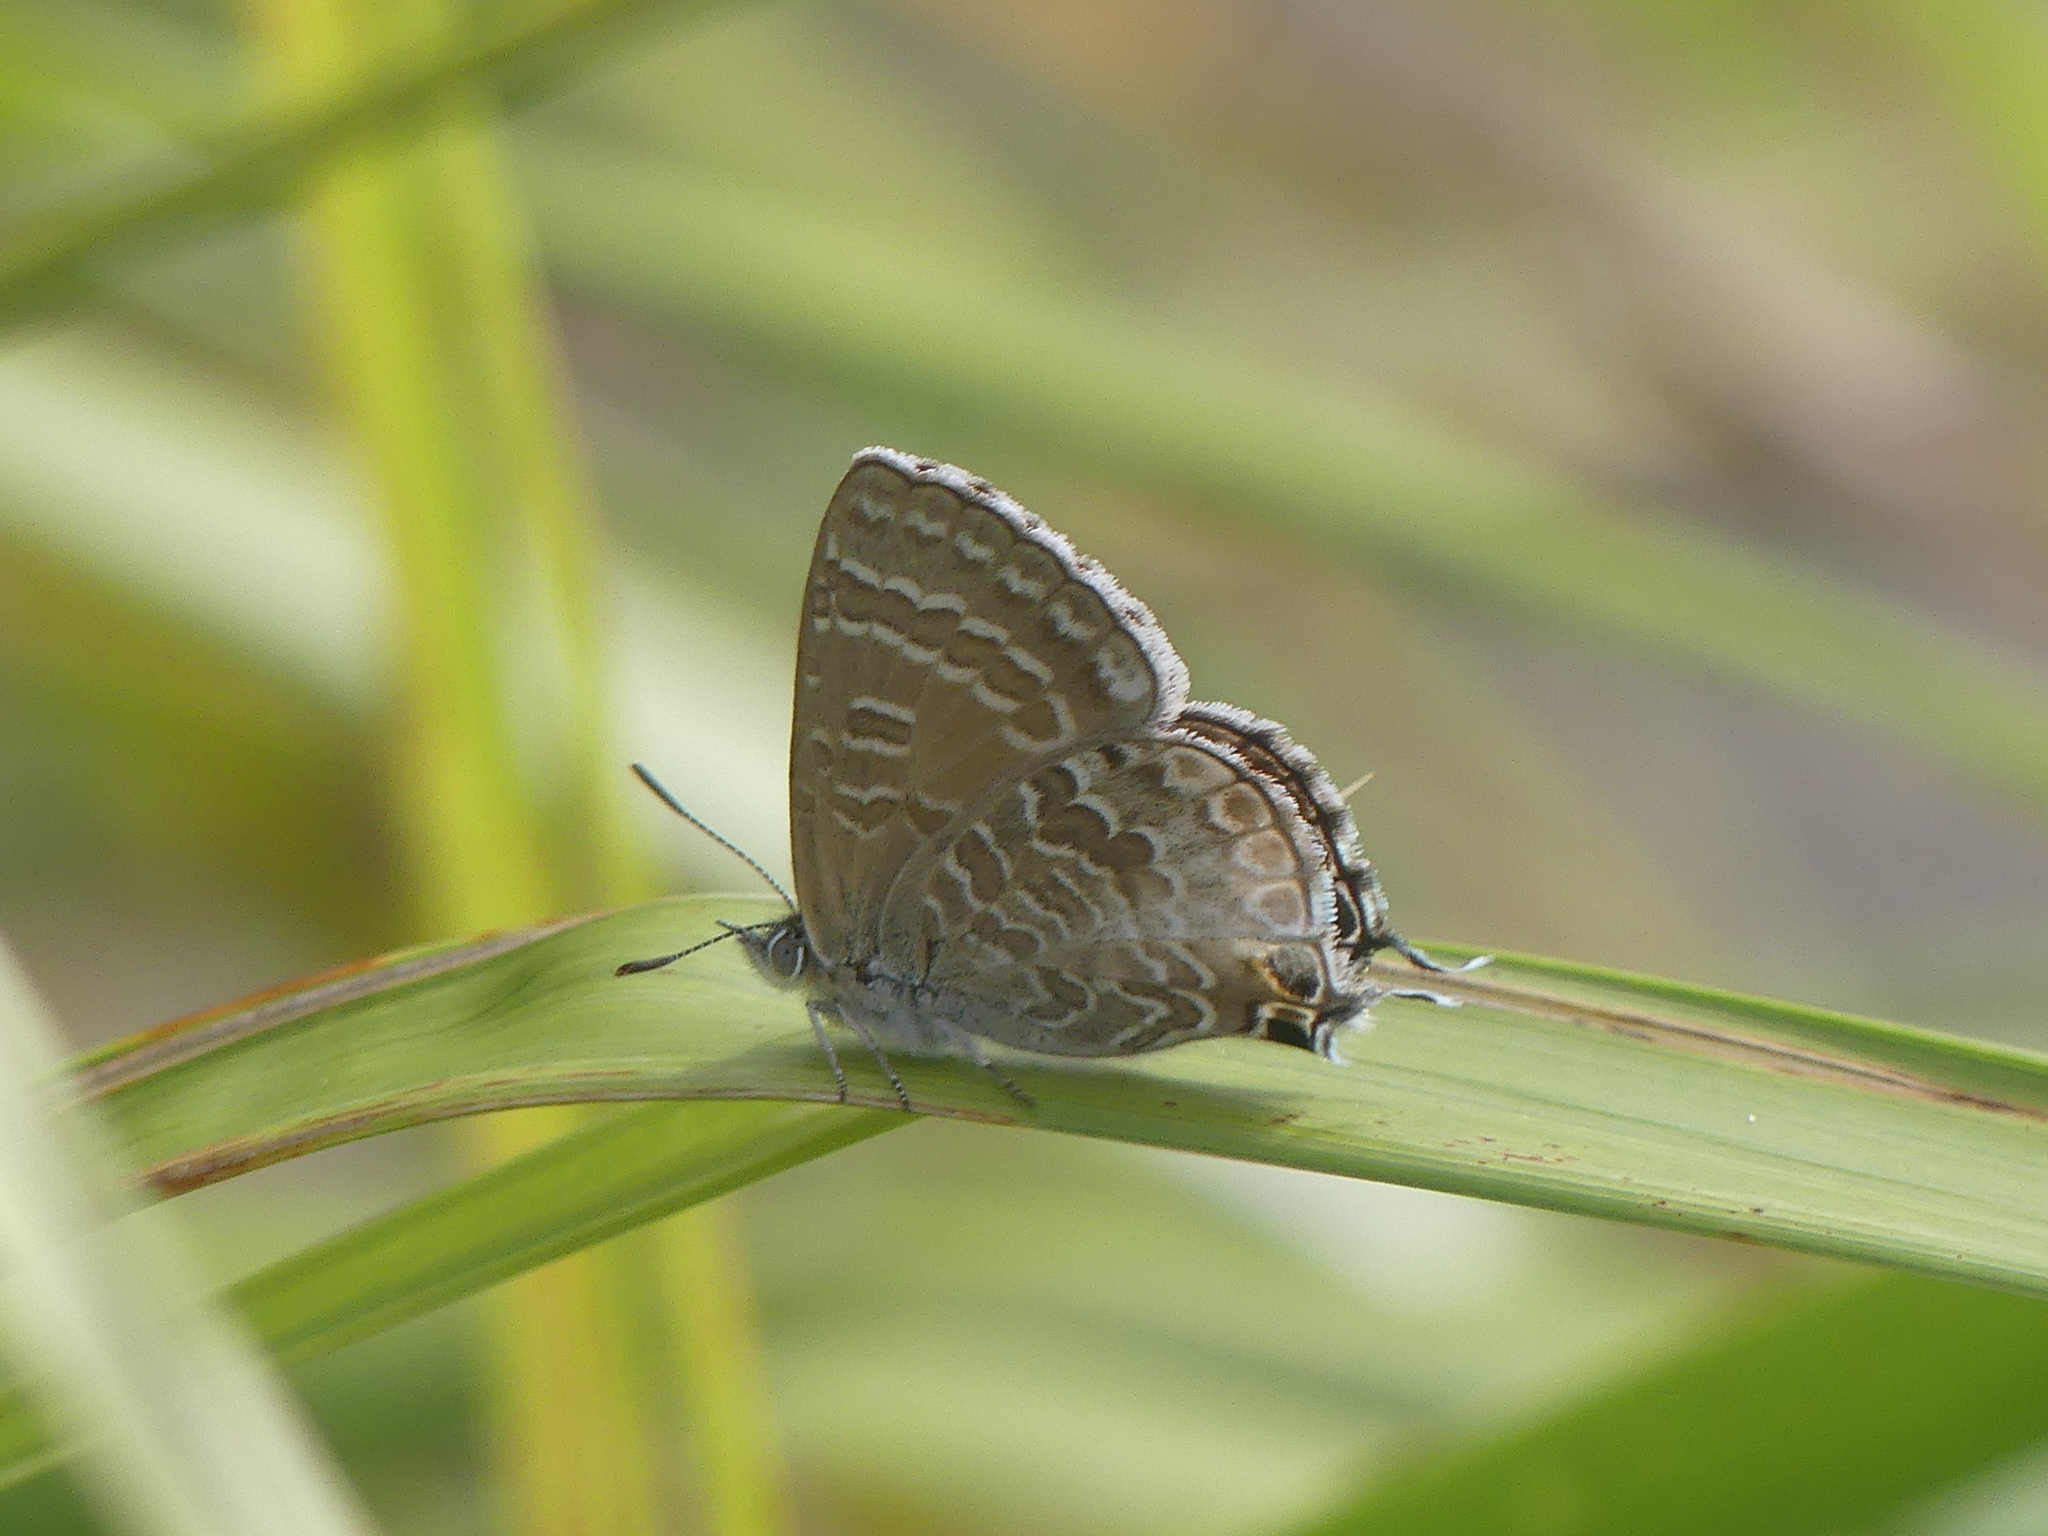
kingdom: Animalia
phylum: Arthropoda
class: Insecta
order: Lepidoptera
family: Lycaenidae
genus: Theclinesthes
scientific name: Theclinesthes onycha
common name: Cycad blue
